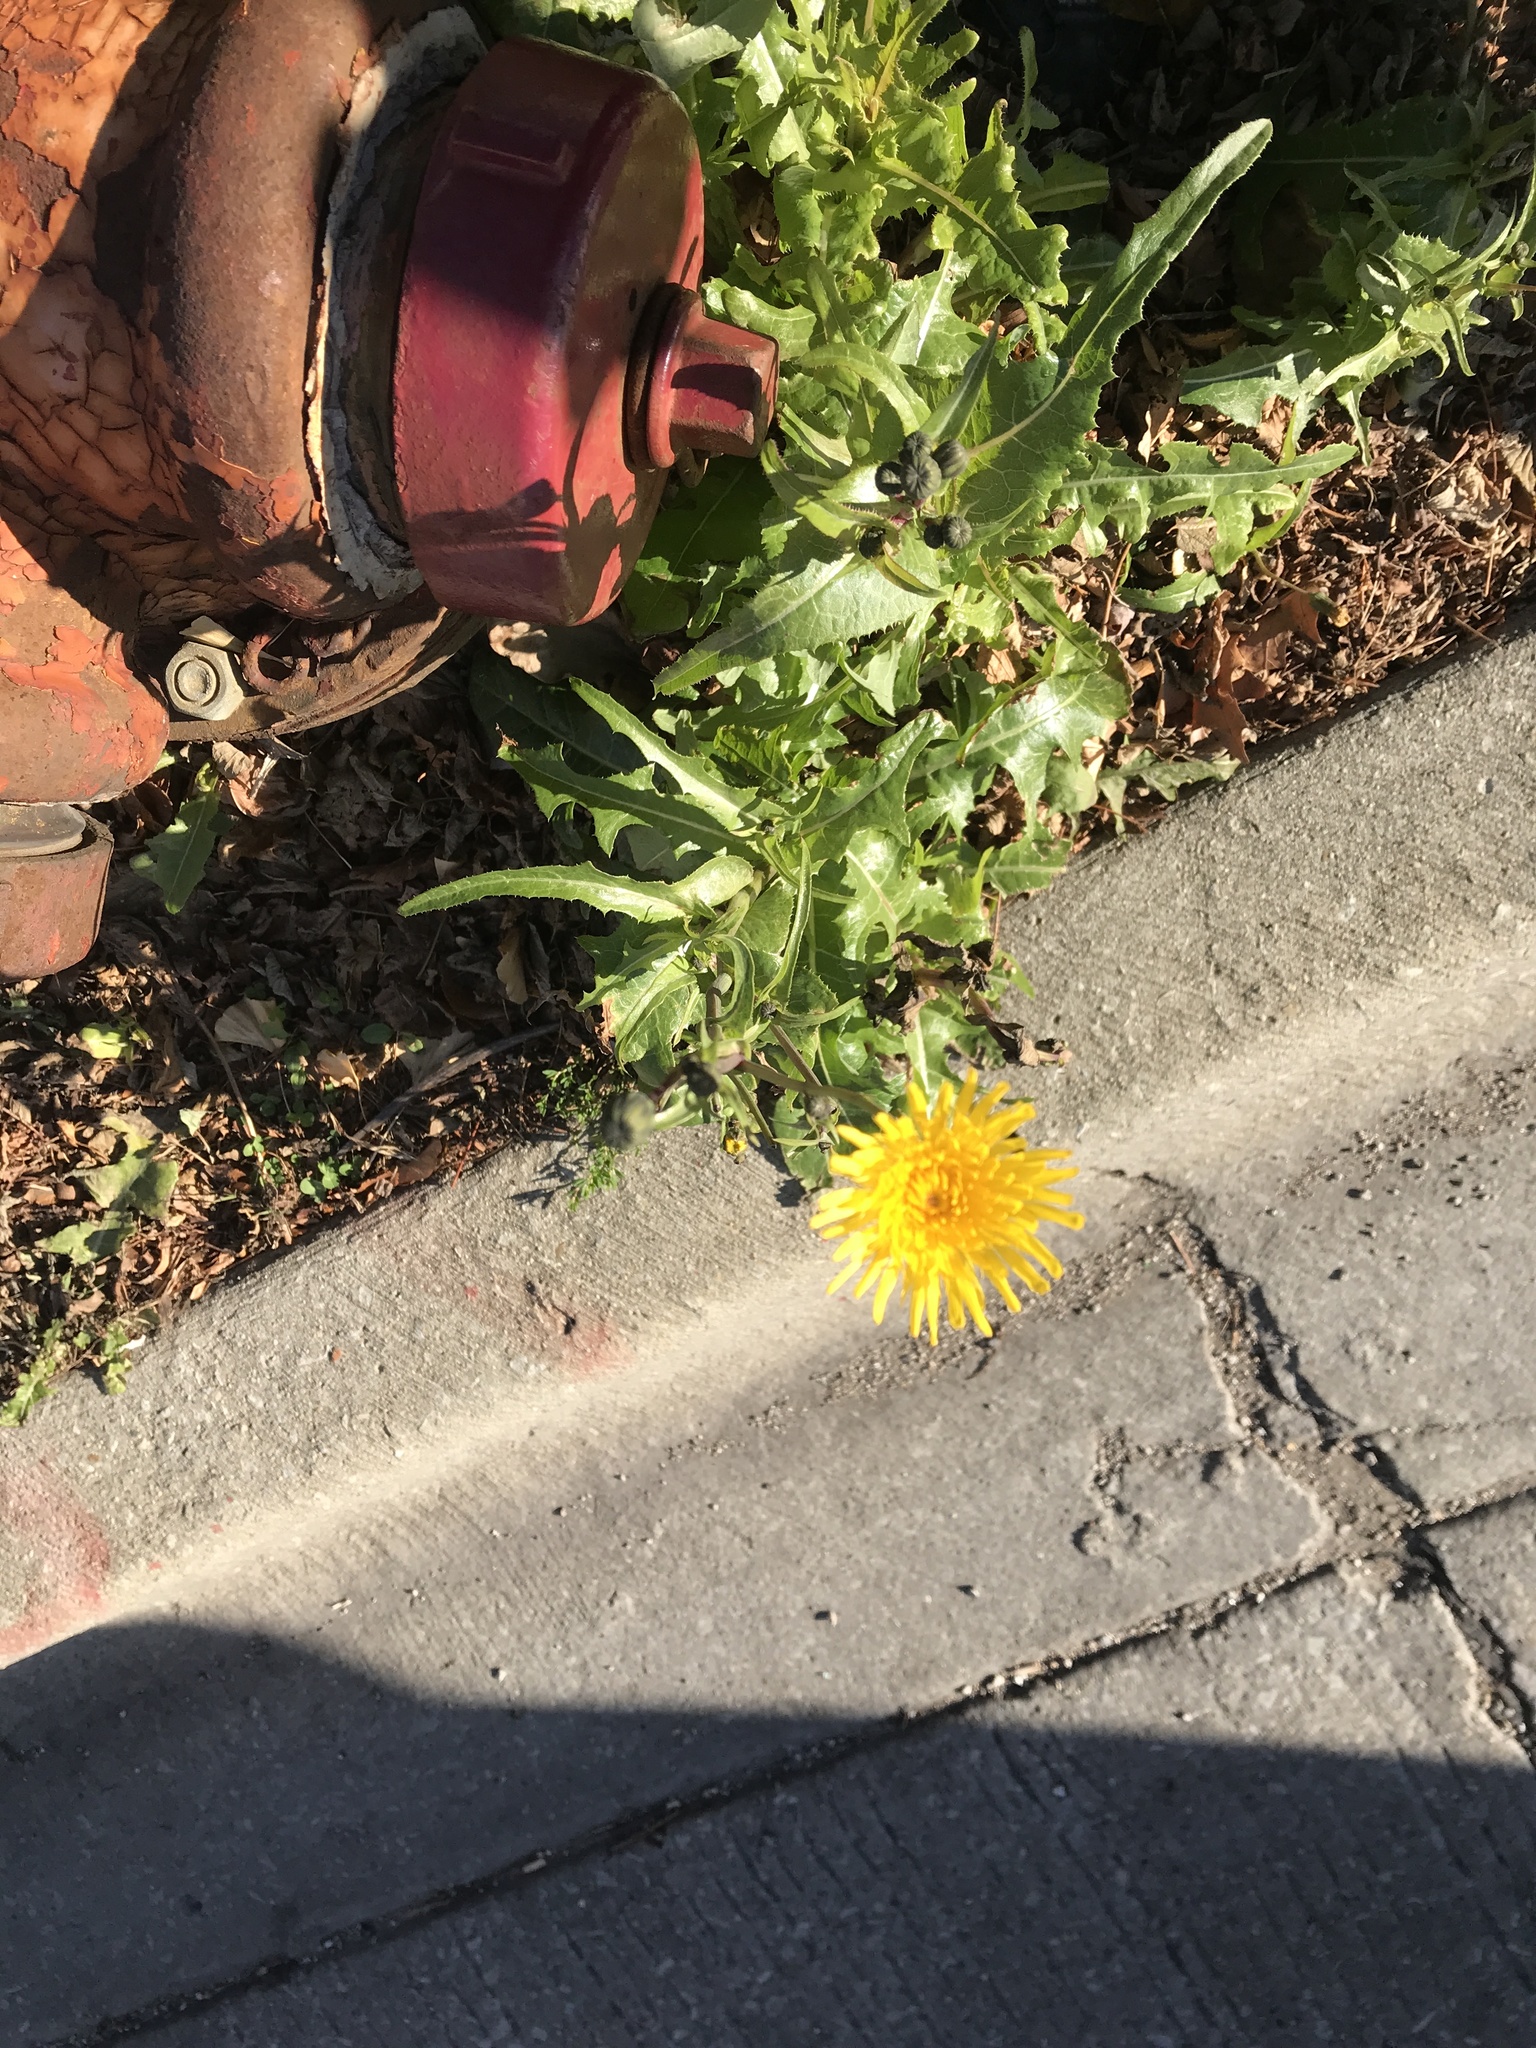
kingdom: Plantae
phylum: Tracheophyta
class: Magnoliopsida
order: Asterales
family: Asteraceae
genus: Sonchus
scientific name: Sonchus arvensis
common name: Perennial sow-thistle
